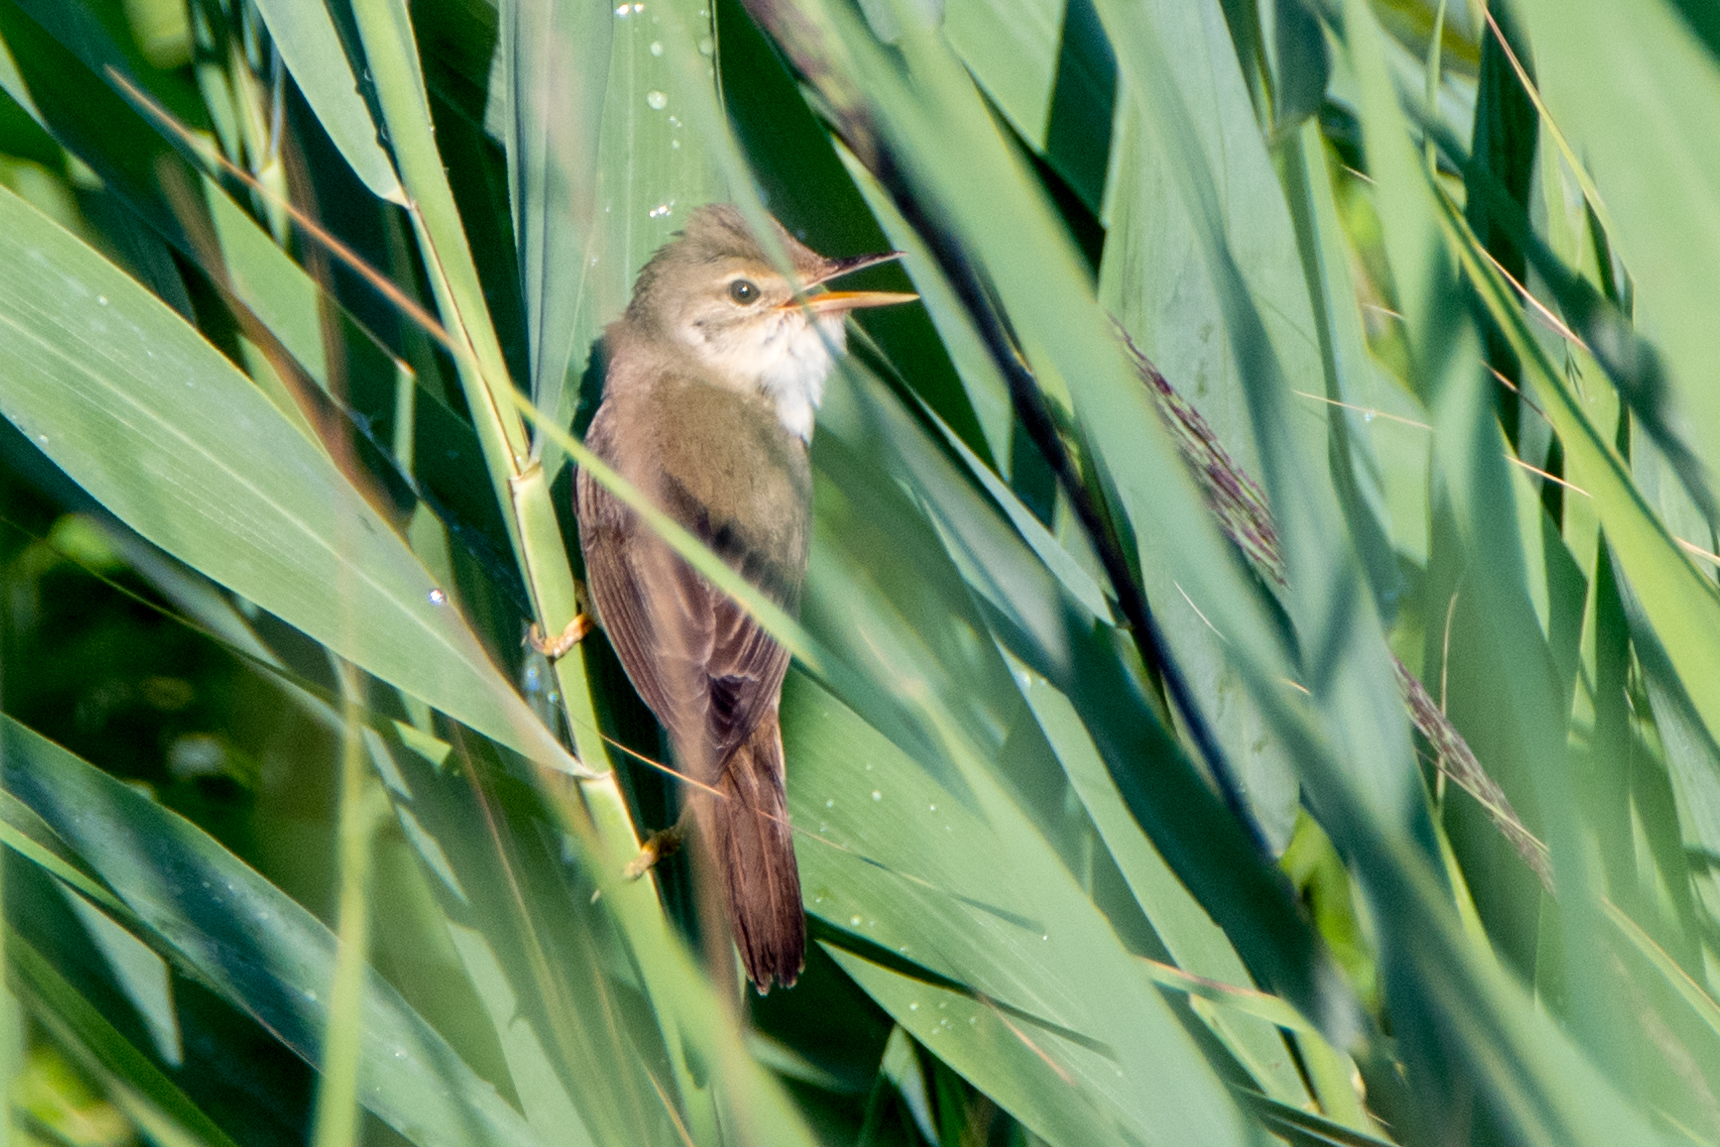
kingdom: Animalia
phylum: Chordata
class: Aves
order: Passeriformes
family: Acrocephalidae
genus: Acrocephalus
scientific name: Acrocephalus palustris
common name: Marsh warbler
